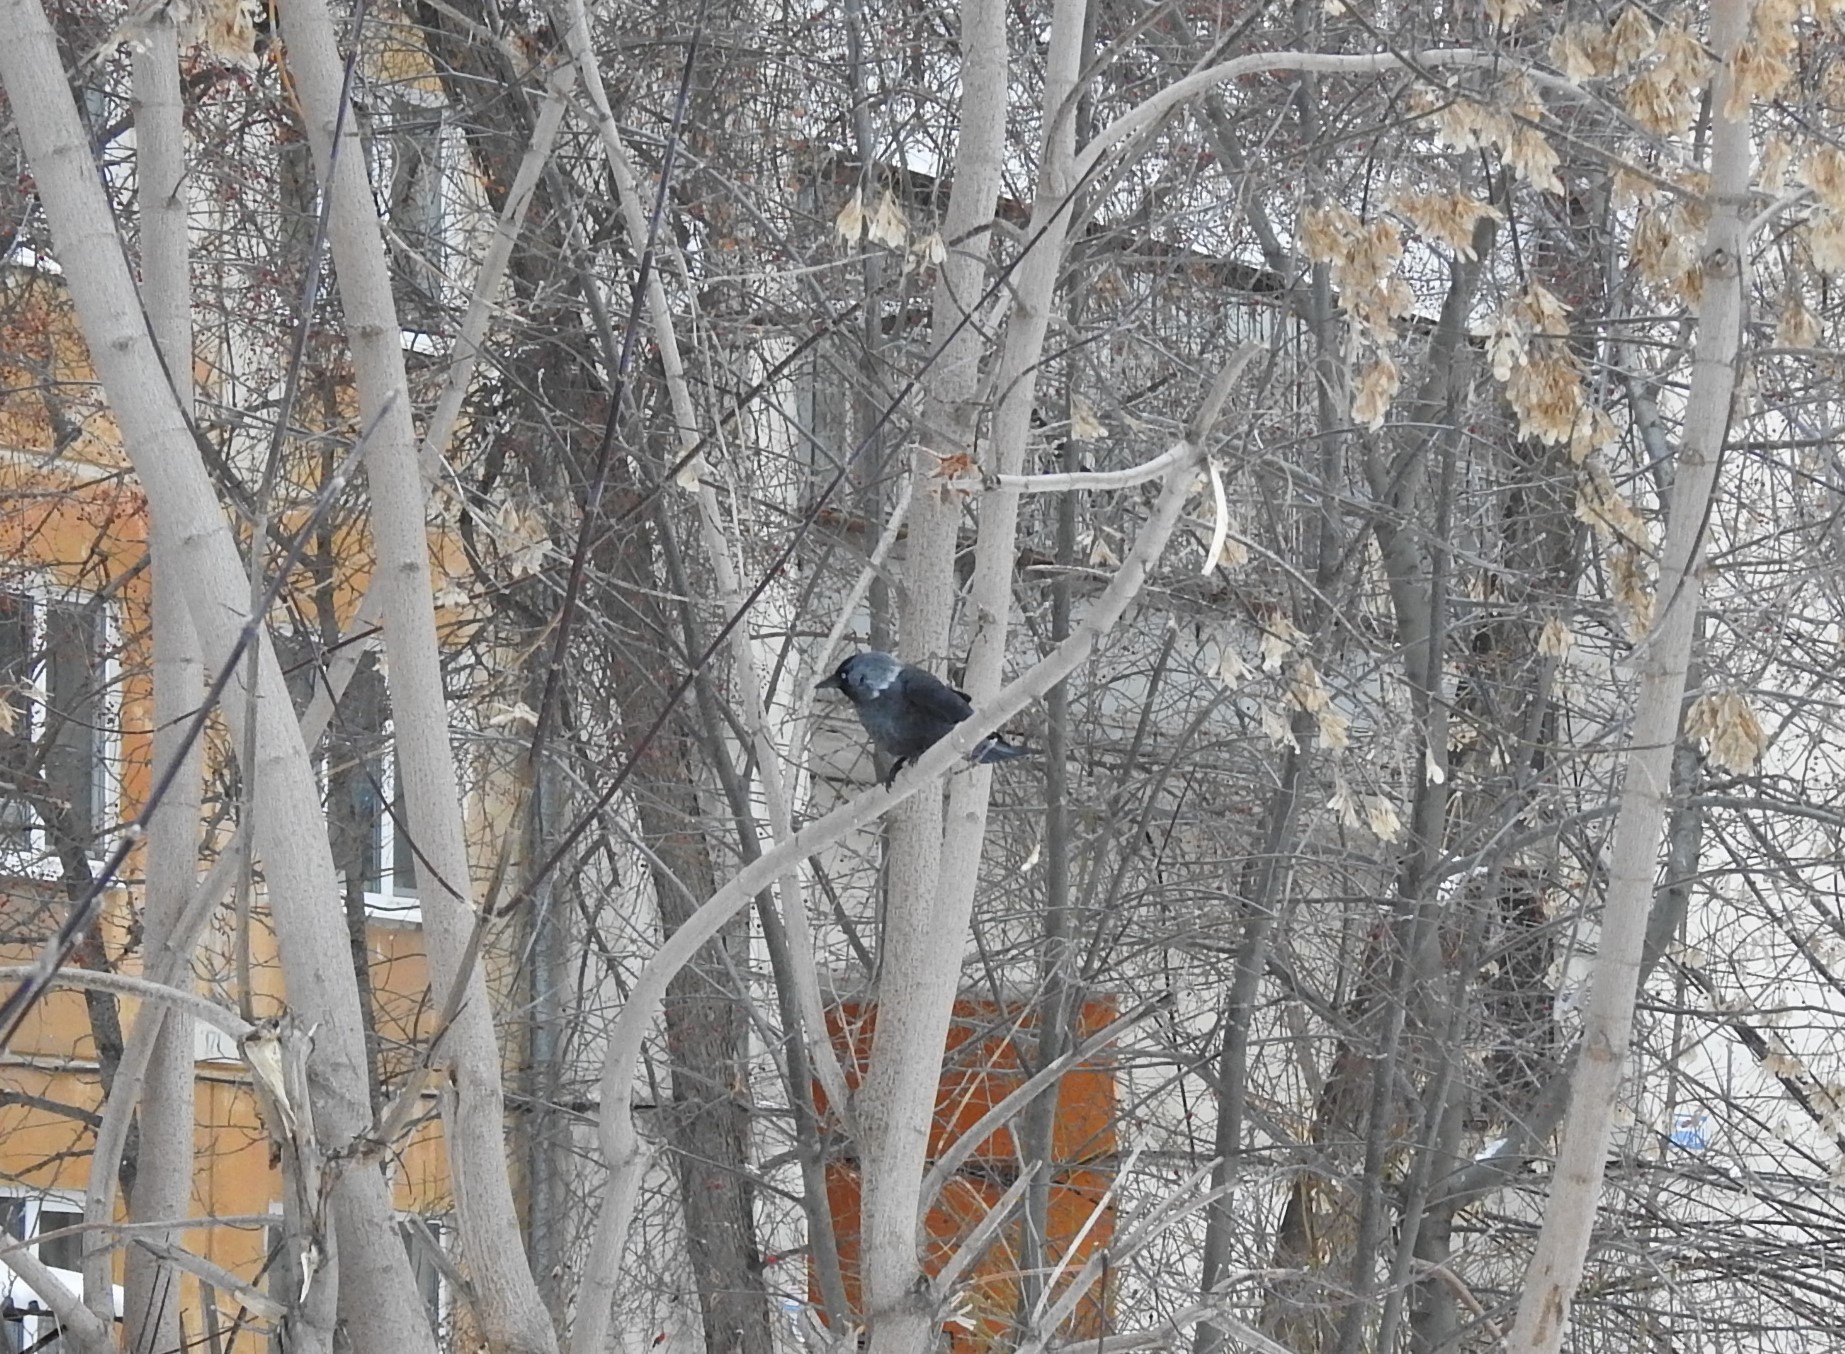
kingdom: Animalia
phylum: Chordata
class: Aves
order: Passeriformes
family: Corvidae
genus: Coloeus
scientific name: Coloeus monedula
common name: Western jackdaw
